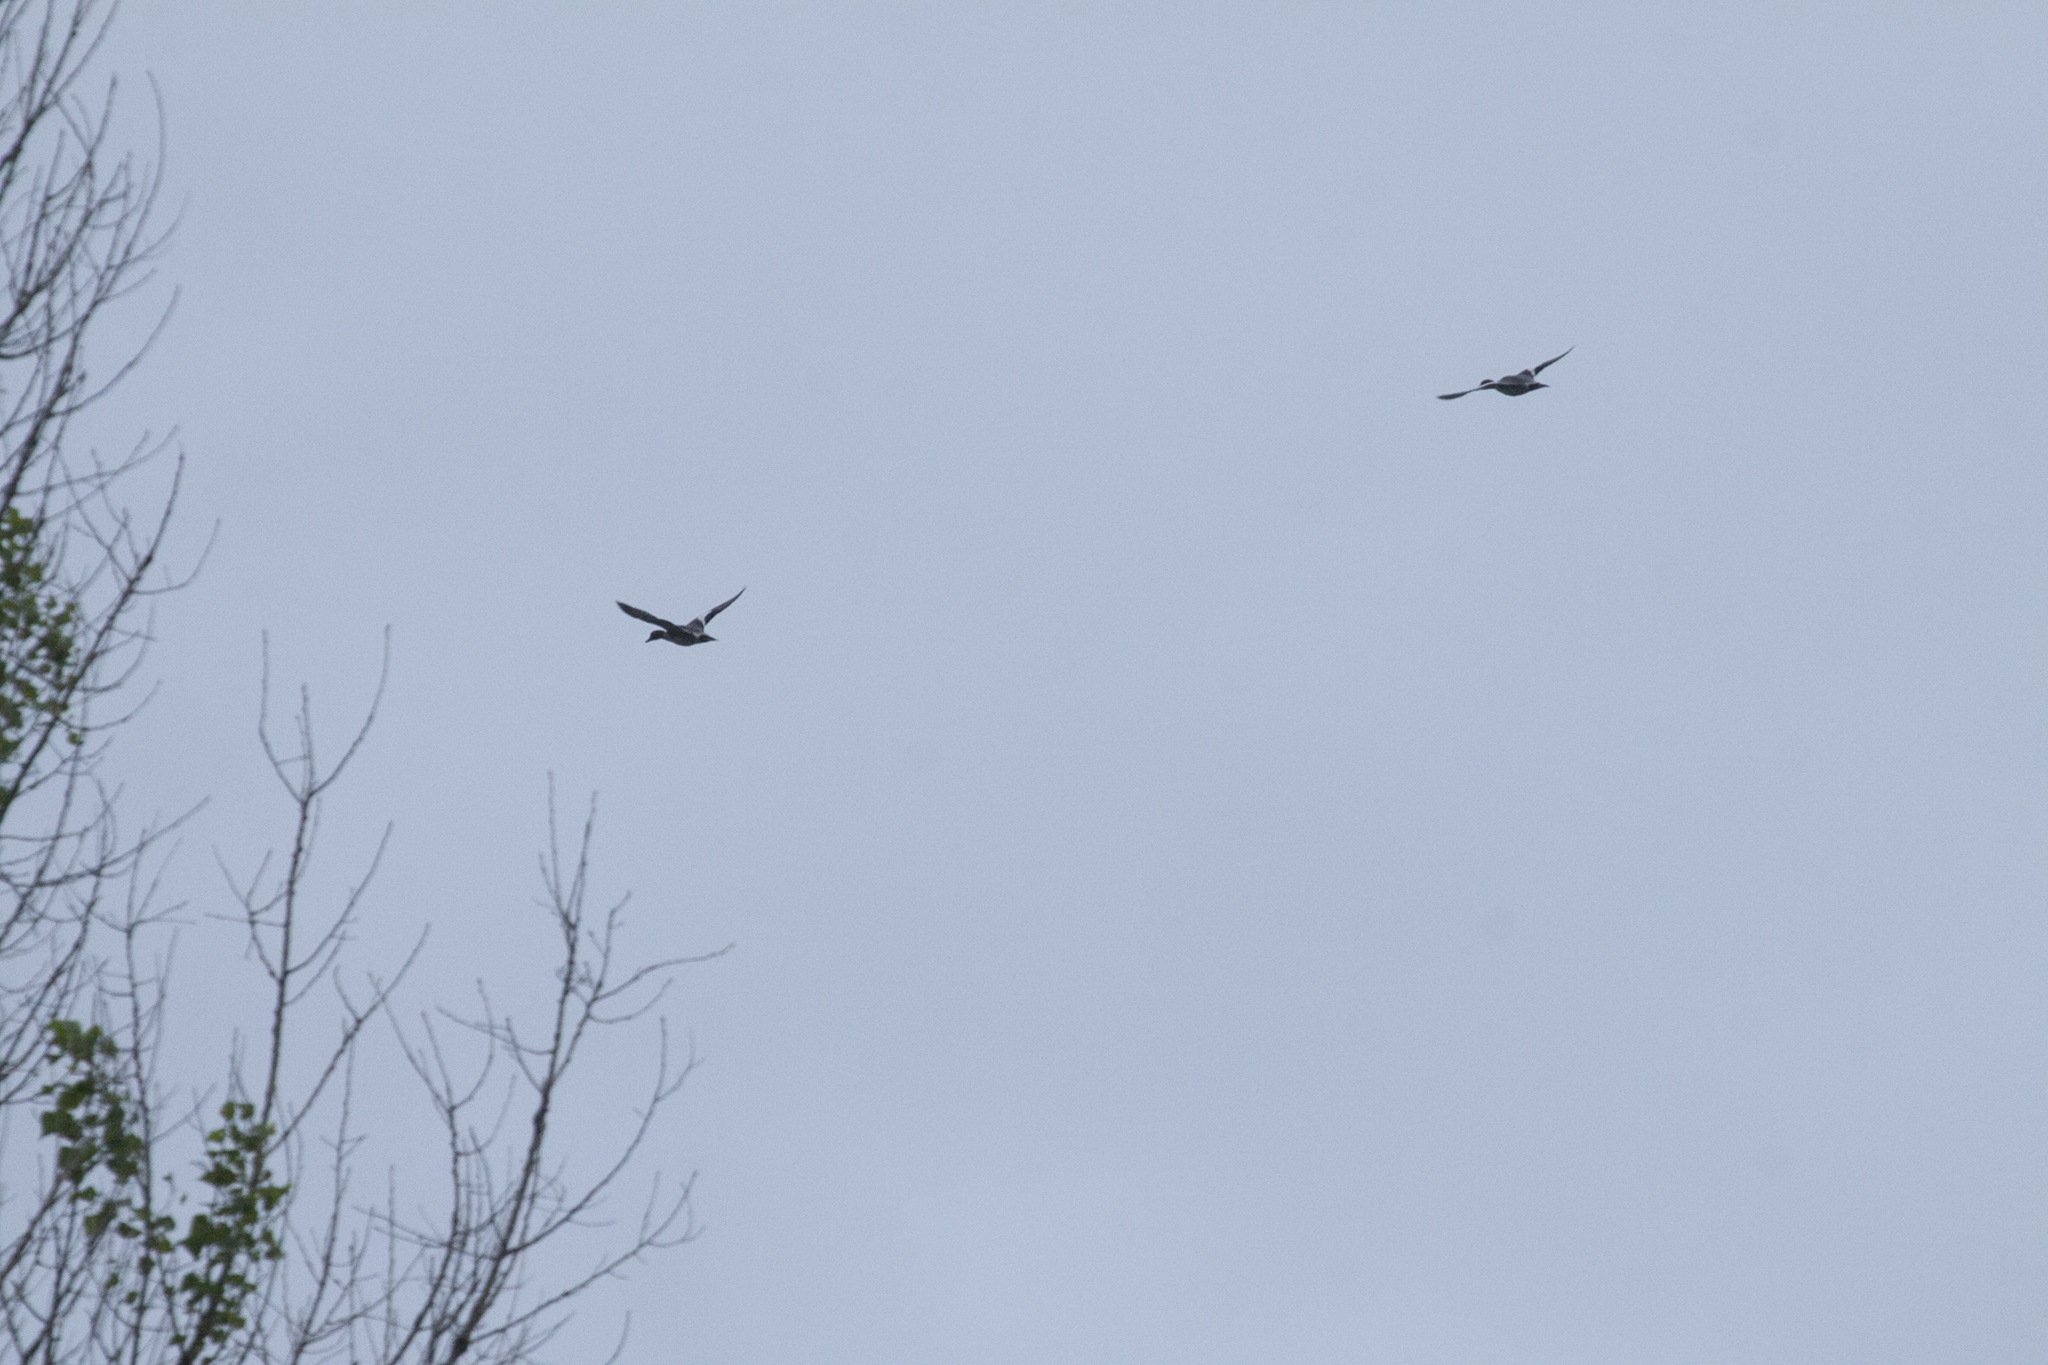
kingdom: Animalia
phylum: Chordata
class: Aves
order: Anseriformes
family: Anatidae
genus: Mareca
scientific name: Mareca penelope
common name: Eurasian wigeon
